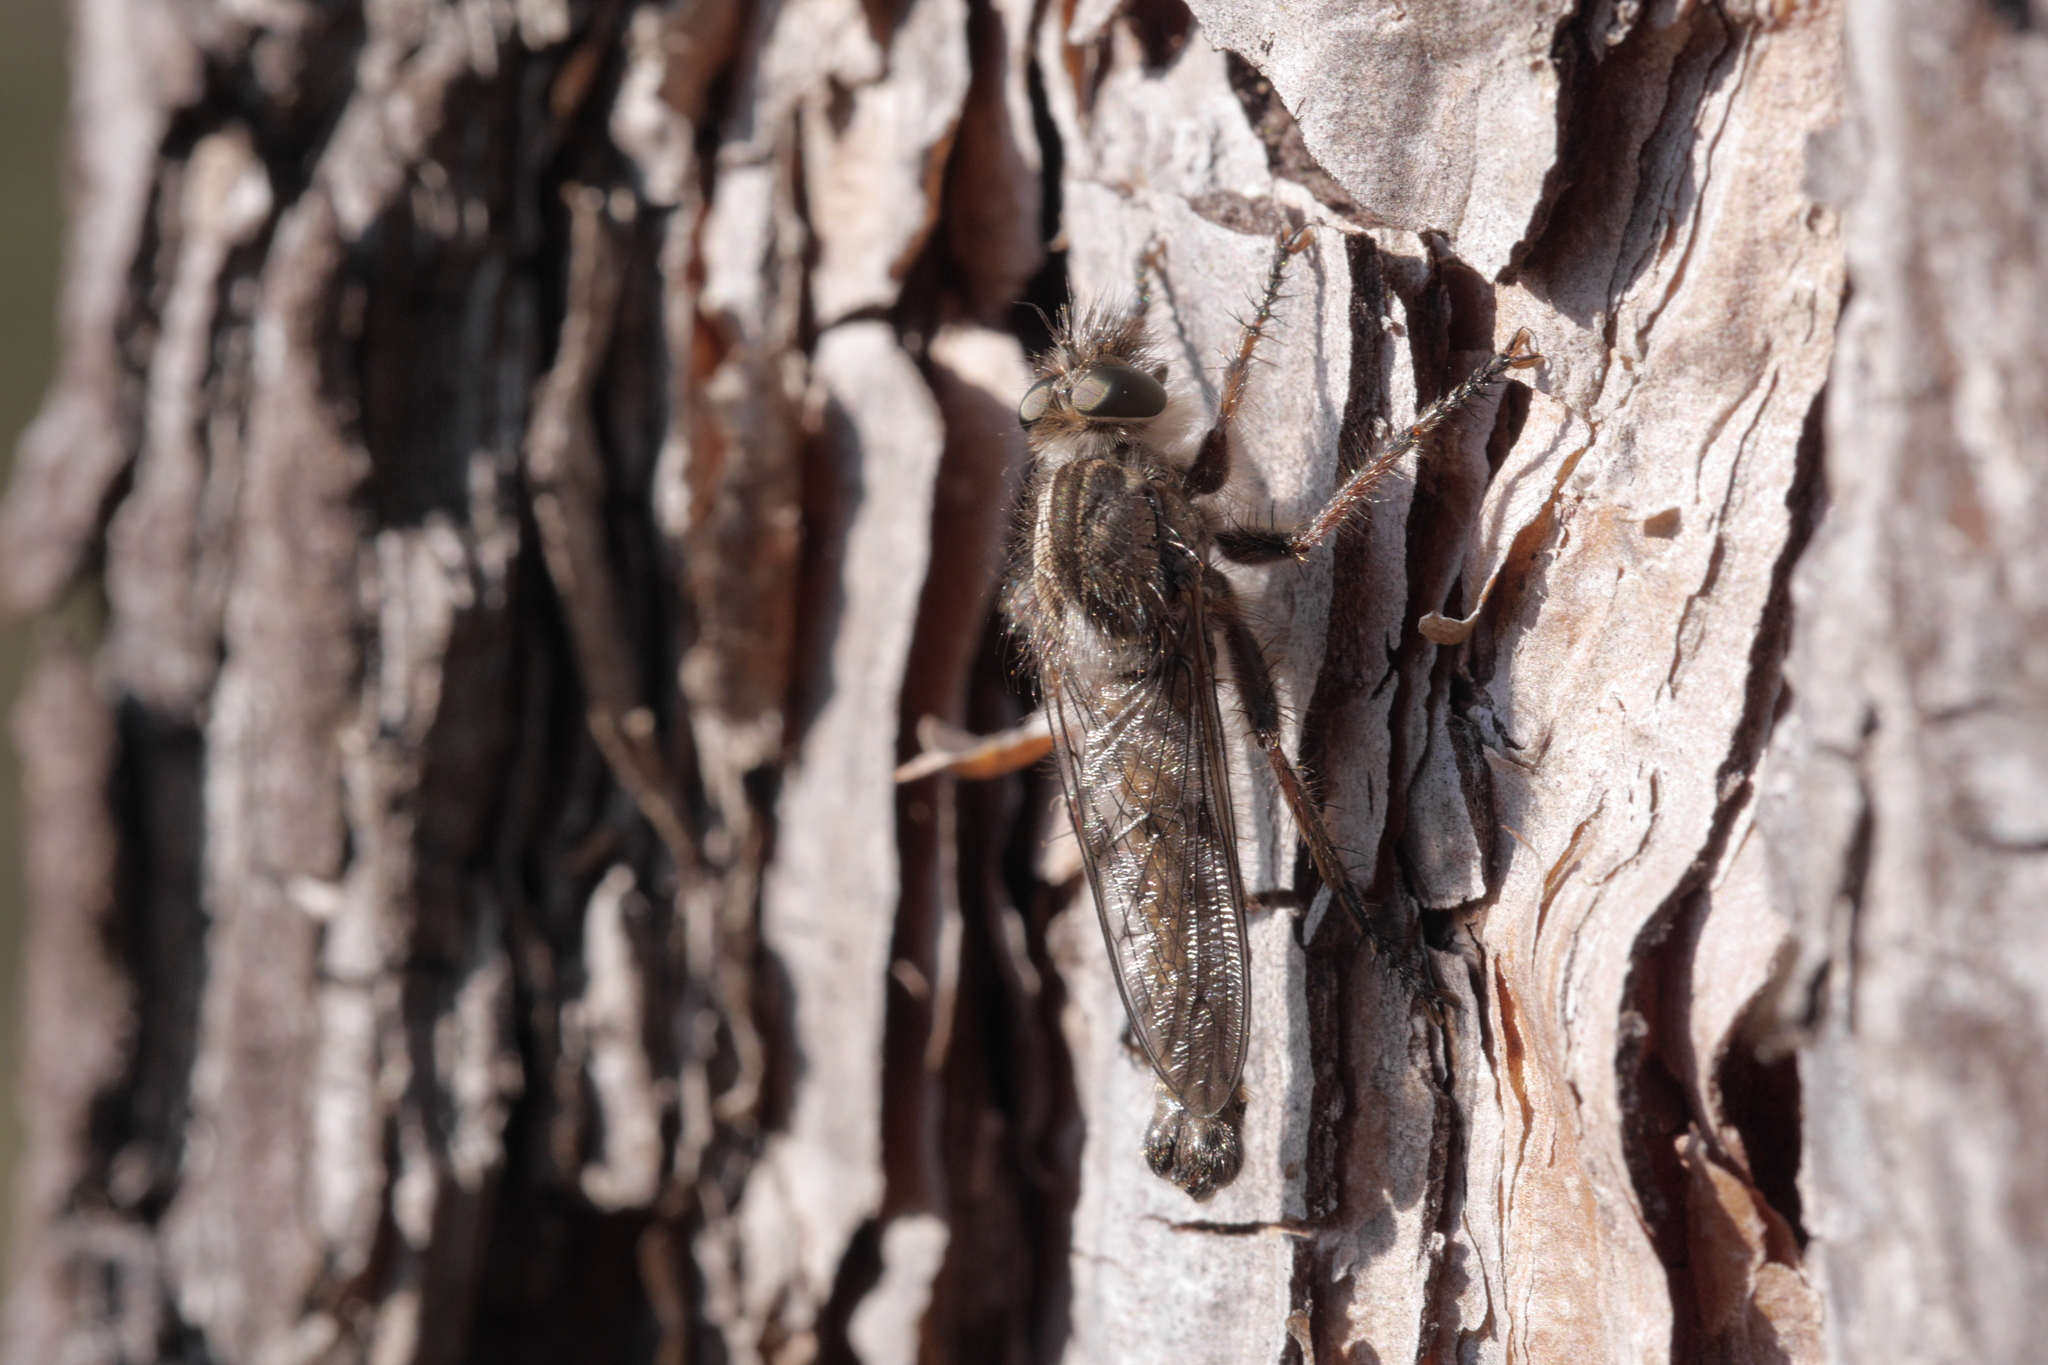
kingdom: Animalia
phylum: Arthropoda
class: Insecta
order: Diptera
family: Asilidae
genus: Erax
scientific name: Erax barbatus
